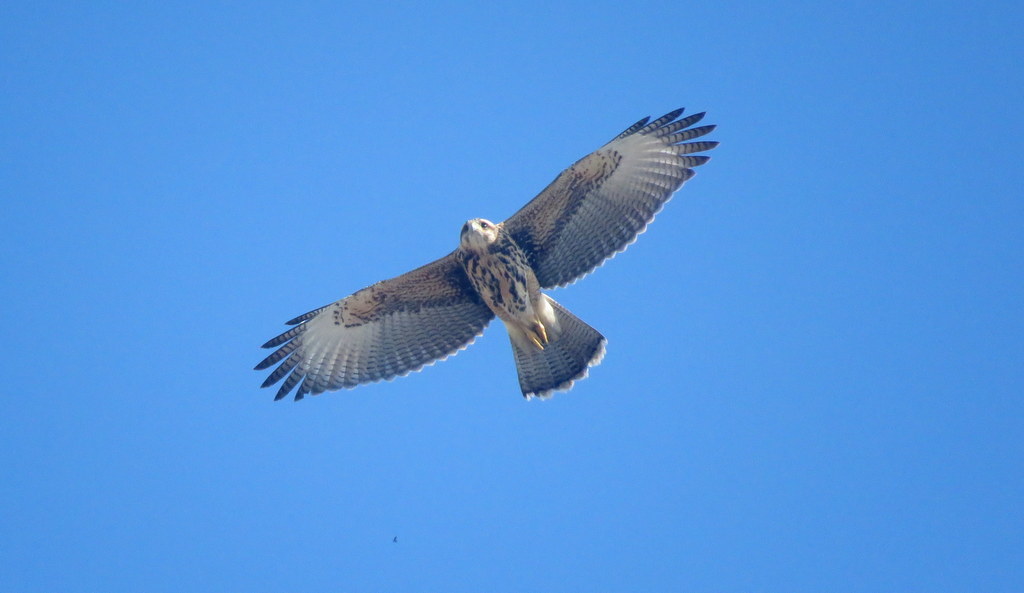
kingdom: Animalia
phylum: Chordata
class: Aves
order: Accipitriformes
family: Accipitridae
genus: Parabuteo
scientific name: Parabuteo unicinctus
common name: Harris's hawk
